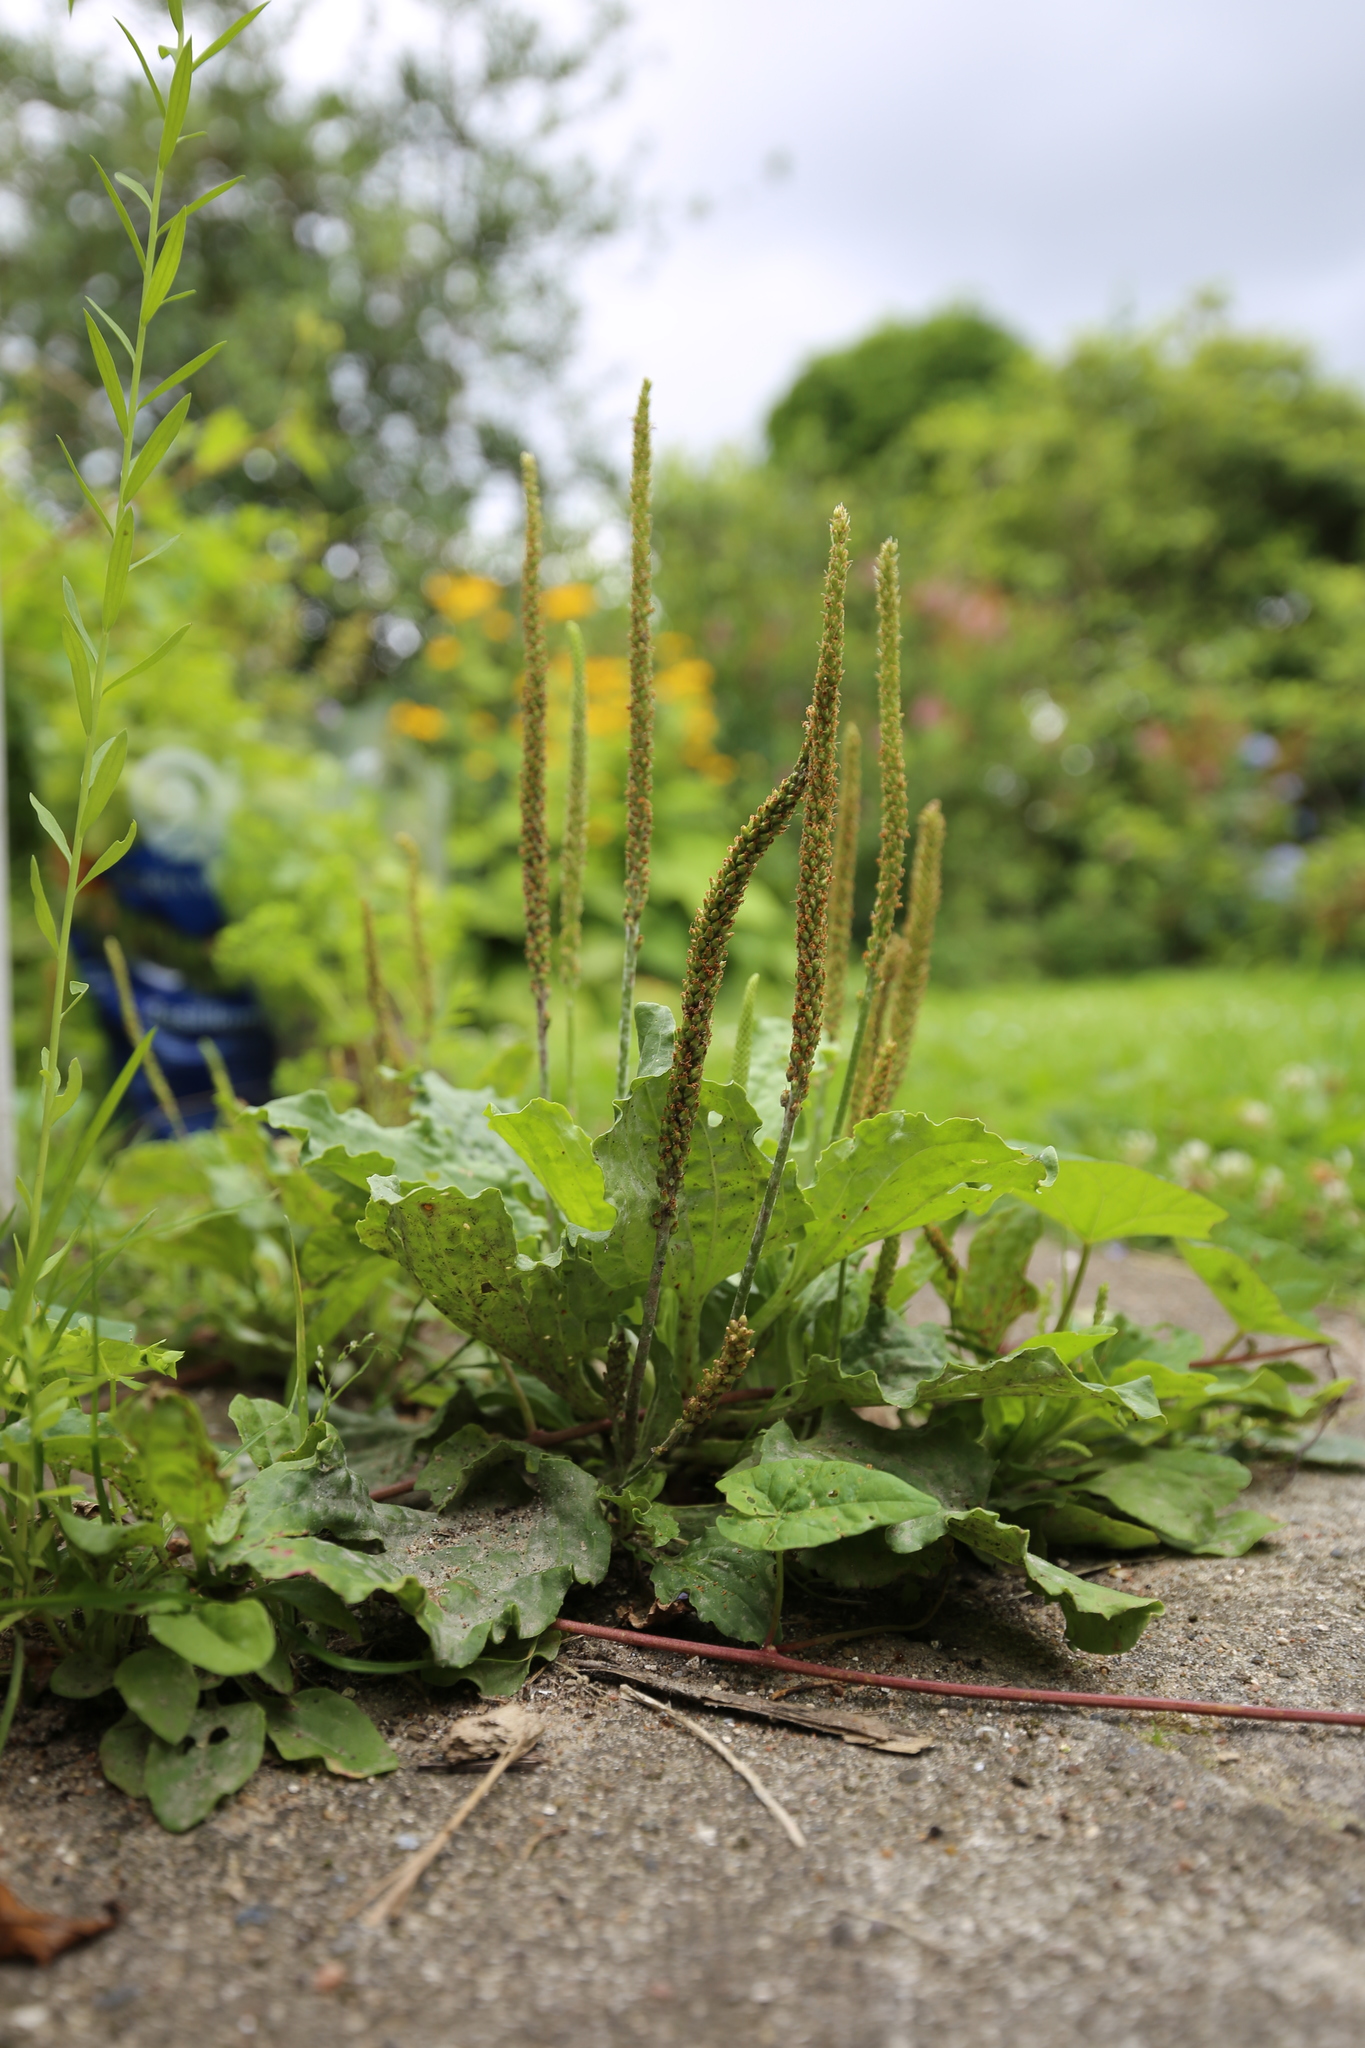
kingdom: Plantae
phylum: Tracheophyta
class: Magnoliopsida
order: Lamiales
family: Plantaginaceae
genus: Plantago
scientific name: Plantago major
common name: Common plantain
